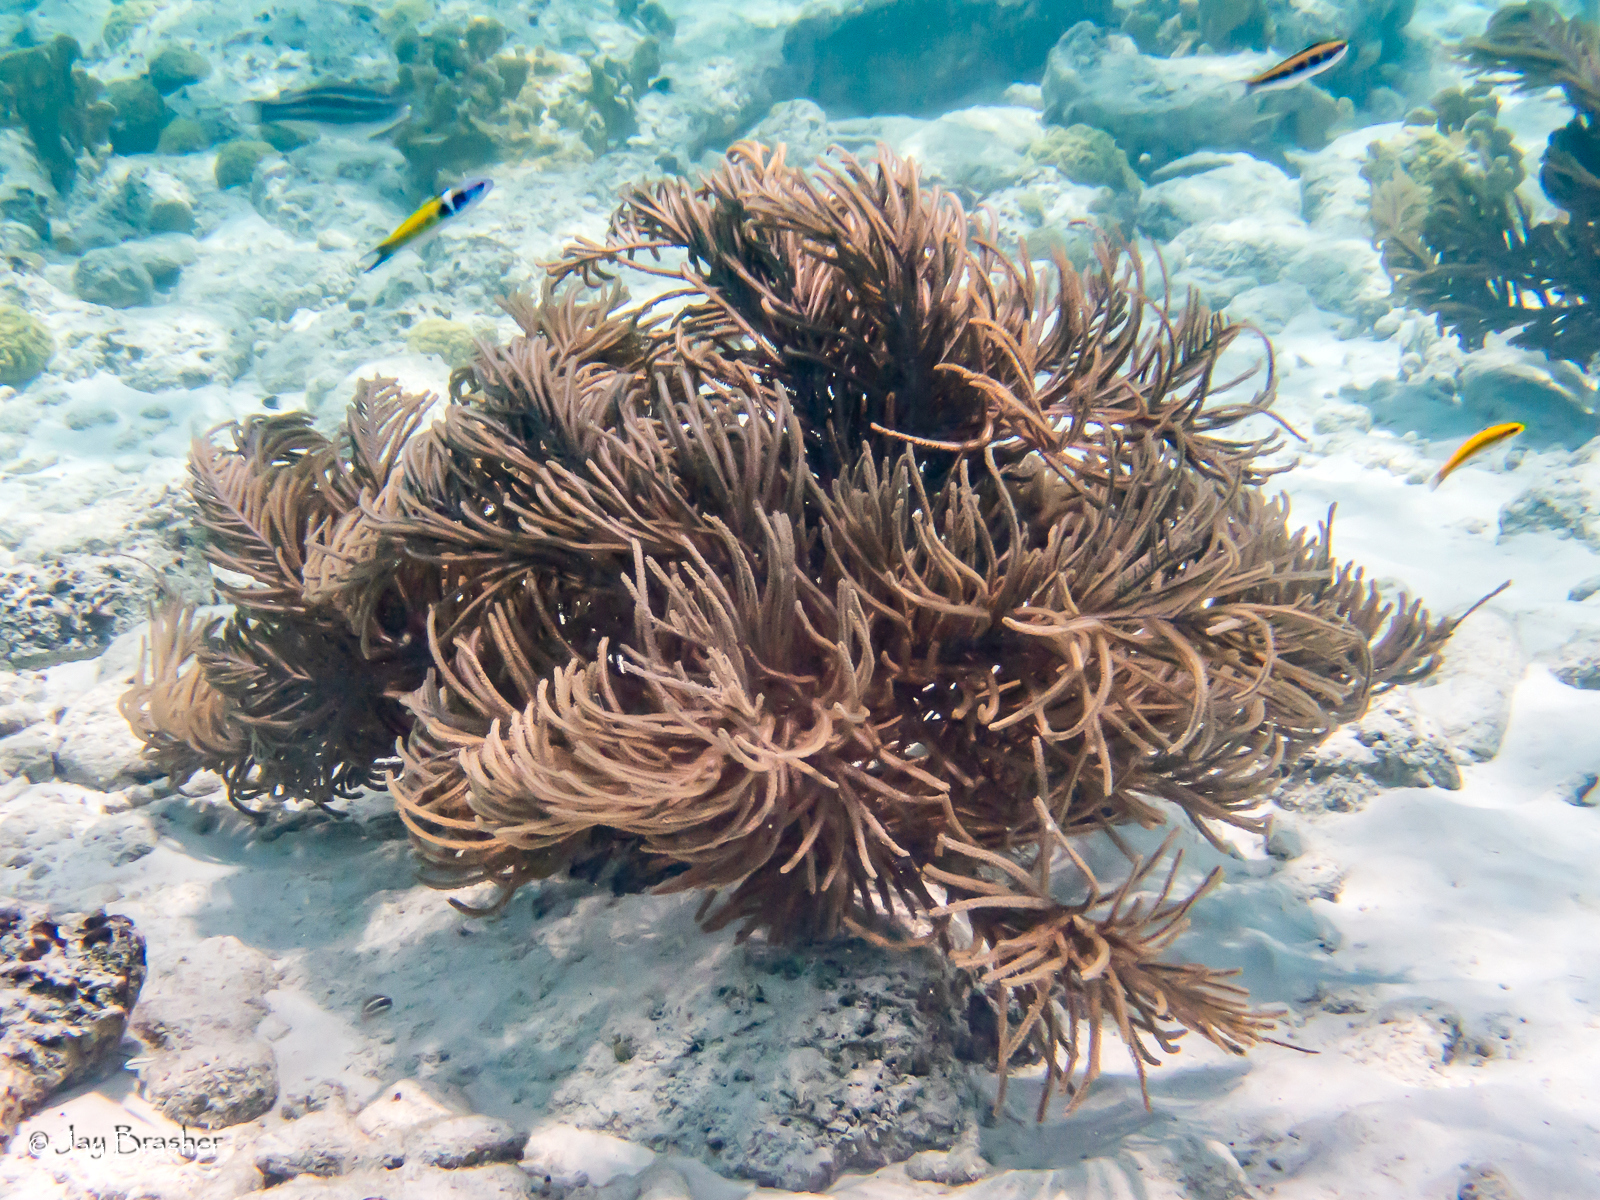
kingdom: Animalia
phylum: Chordata
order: Perciformes
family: Labridae
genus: Thalassoma
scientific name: Thalassoma bifasciatum
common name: Bluehead wrasse
